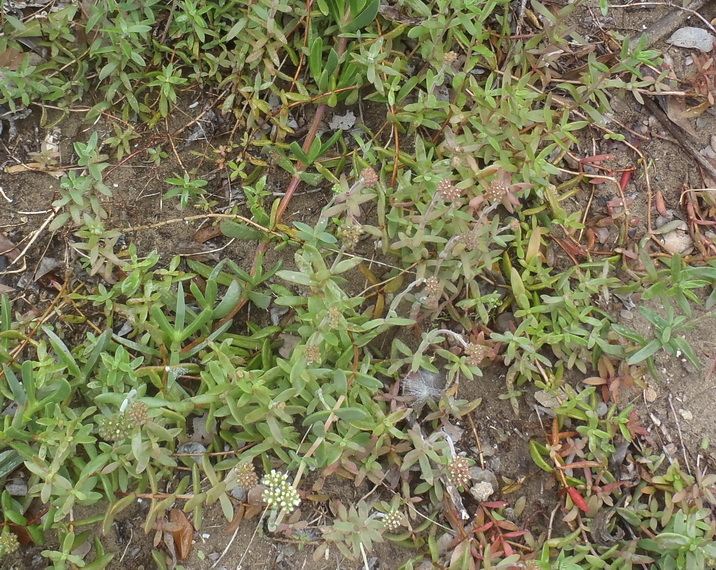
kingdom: Plantae
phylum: Tracheophyta
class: Magnoliopsida
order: Saxifragales
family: Crassulaceae
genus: Crassula
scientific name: Crassula pubescens
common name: Jersey pigmyweed
